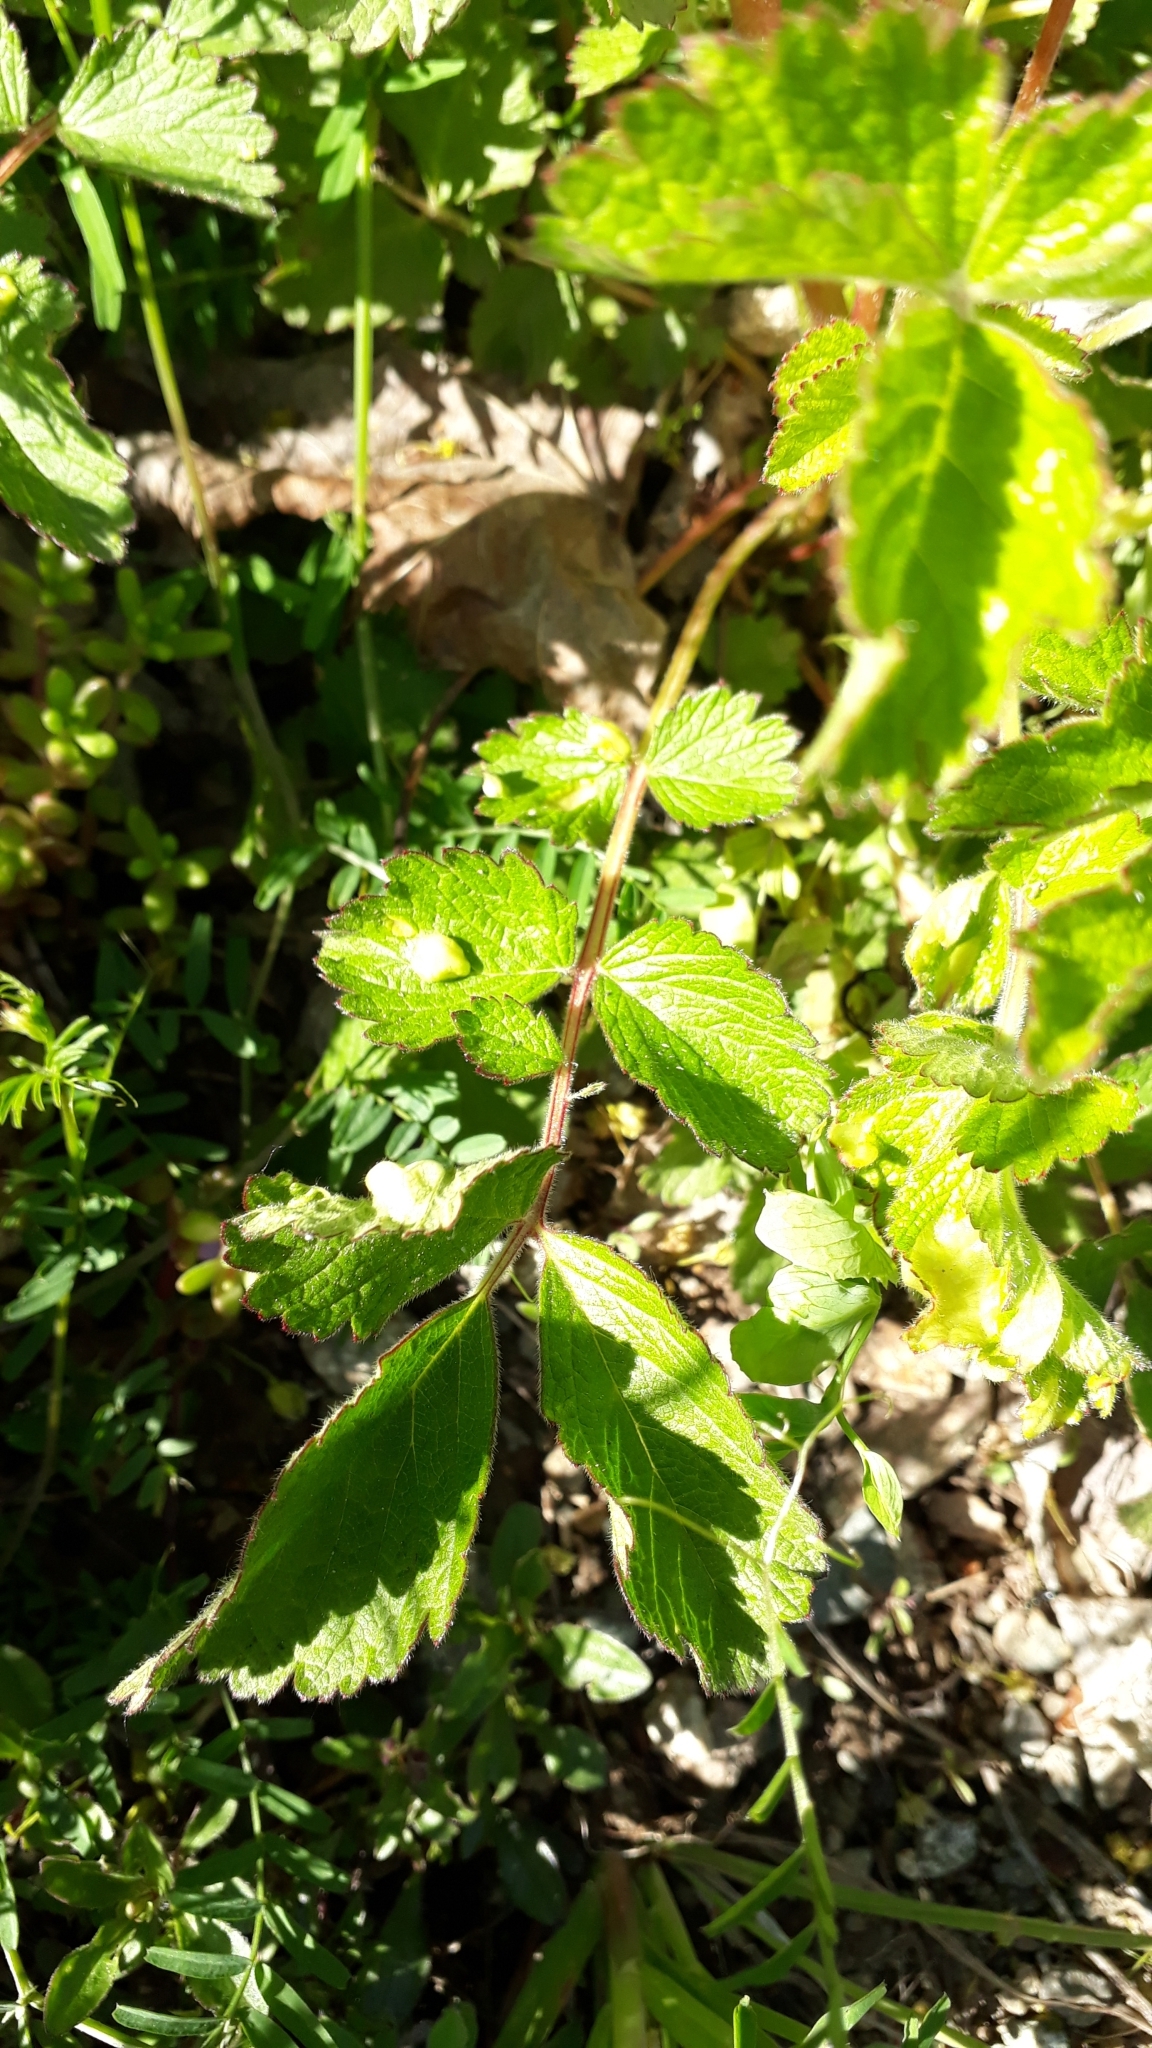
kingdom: Plantae
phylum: Tracheophyta
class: Magnoliopsida
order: Rosales
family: Rosaceae
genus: Drymocallis
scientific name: Drymocallis rupestris
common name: Rock cinquefoil
